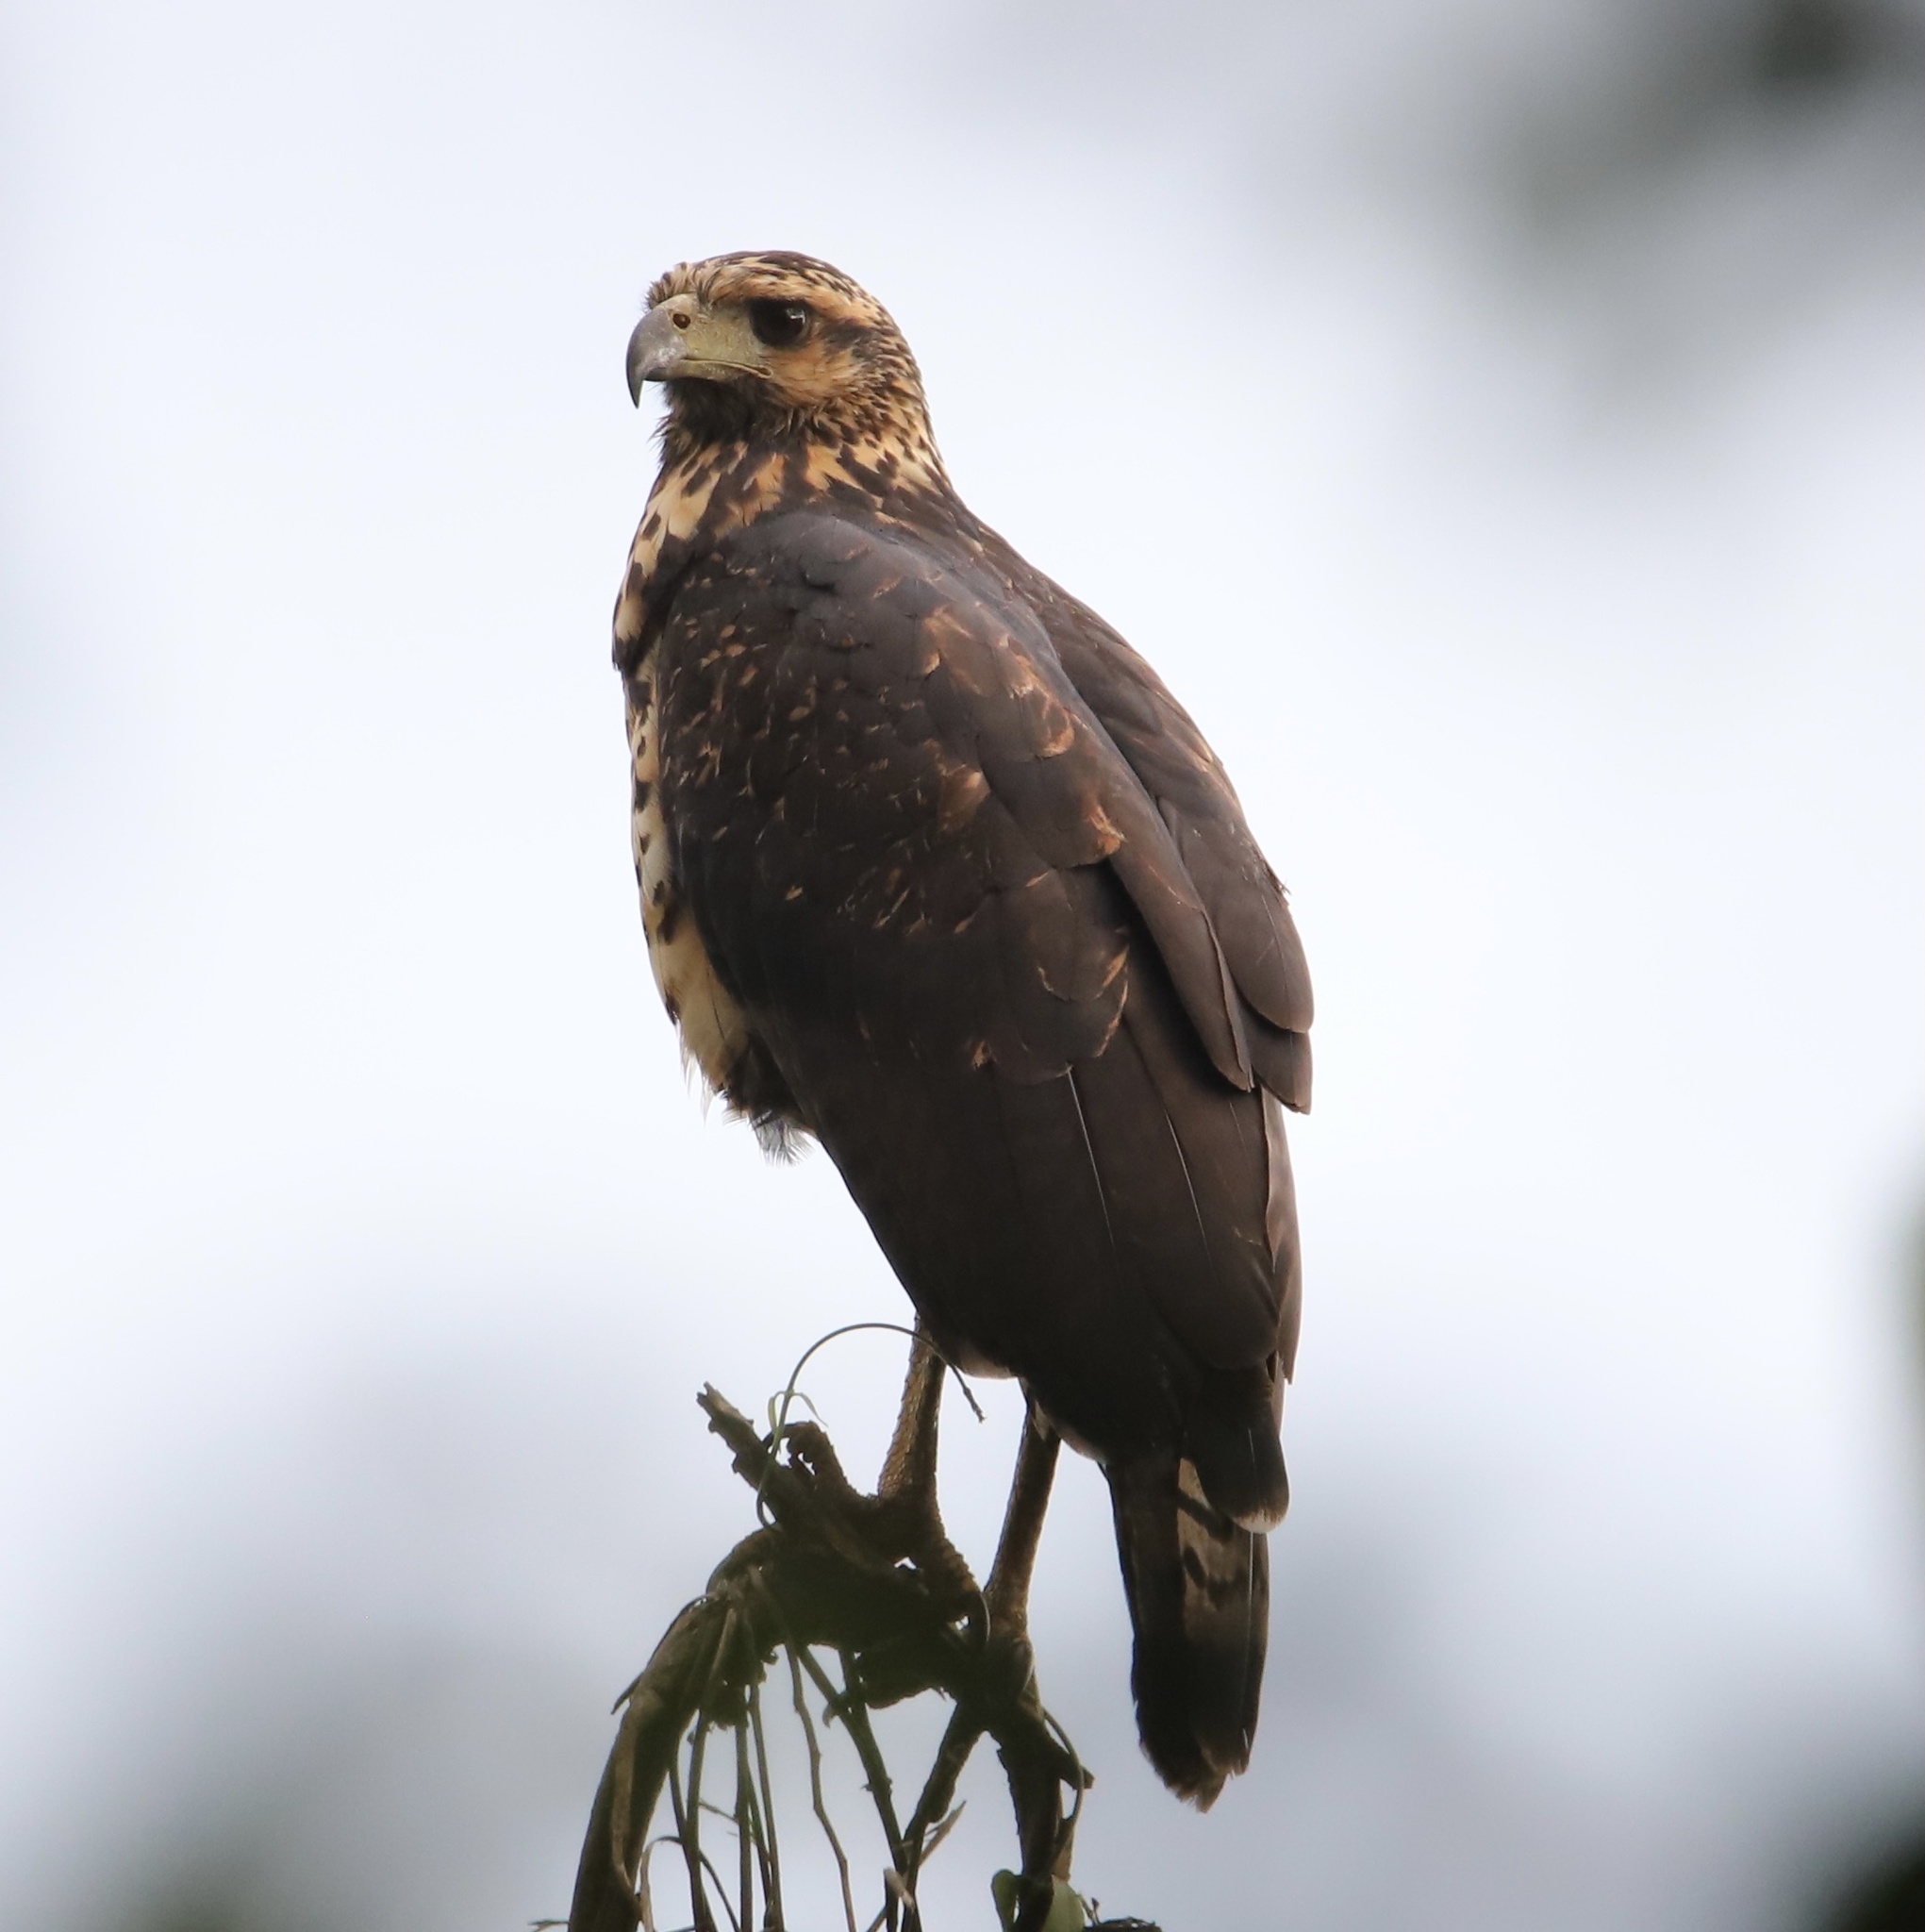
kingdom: Animalia
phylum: Chordata
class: Aves
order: Accipitriformes
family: Accipitridae
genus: Buteogallus
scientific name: Buteogallus urubitinga
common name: Great black hawk
